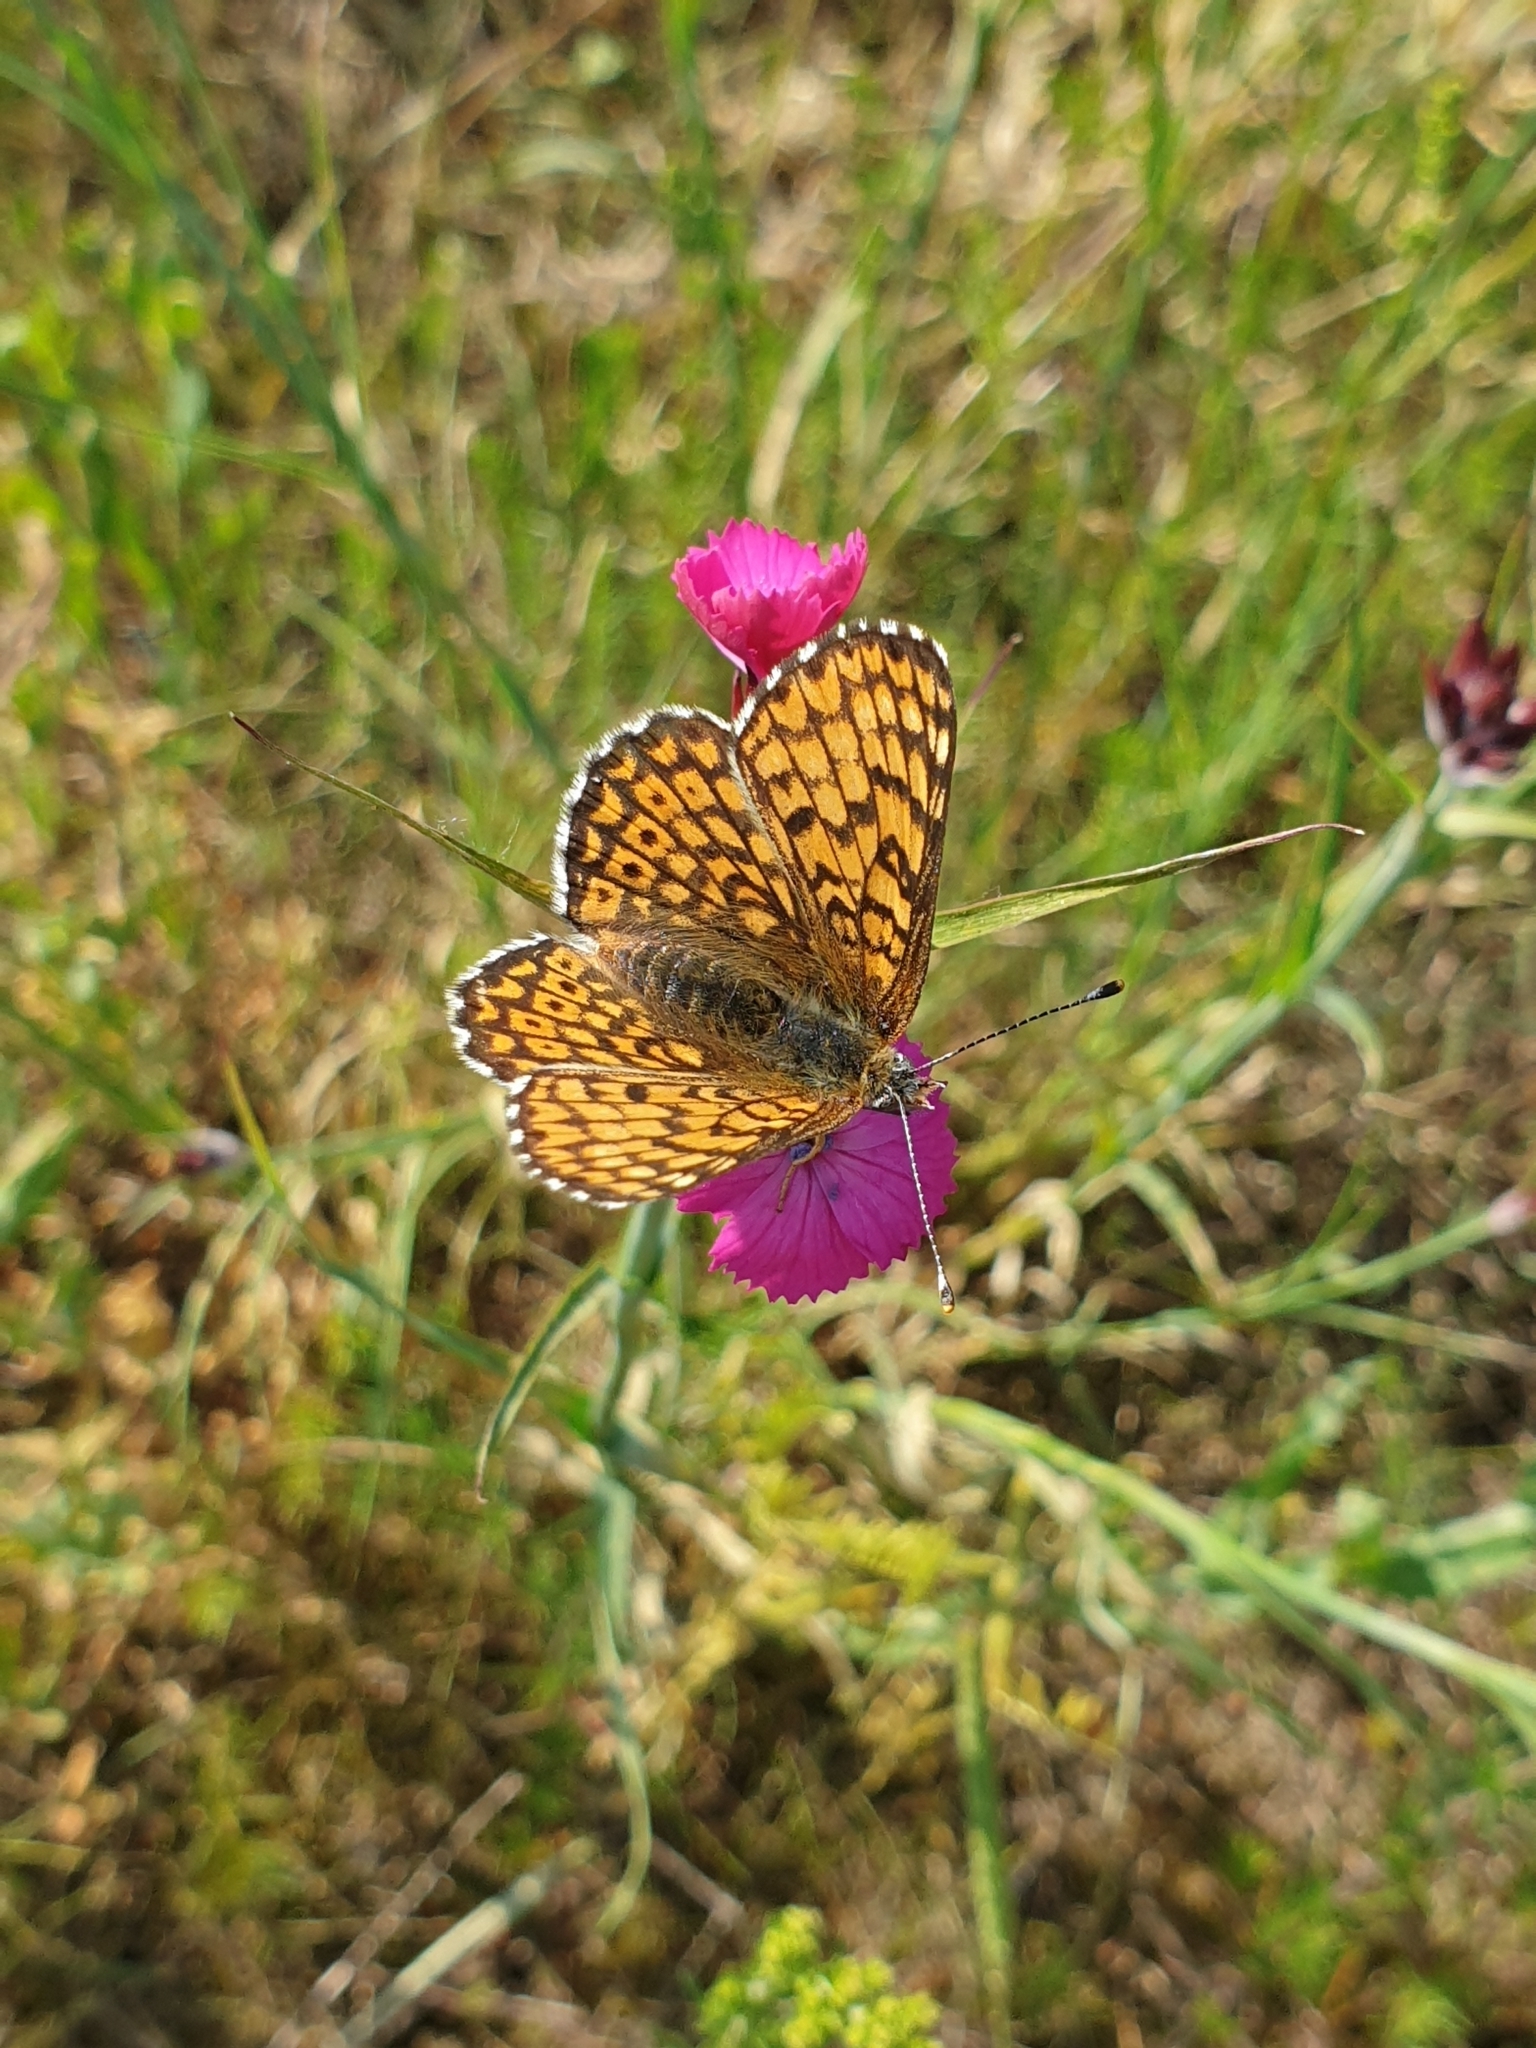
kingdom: Animalia
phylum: Arthropoda
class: Insecta
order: Lepidoptera
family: Nymphalidae
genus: Melitaea
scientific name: Melitaea cinxia
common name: Glanville fritillary
